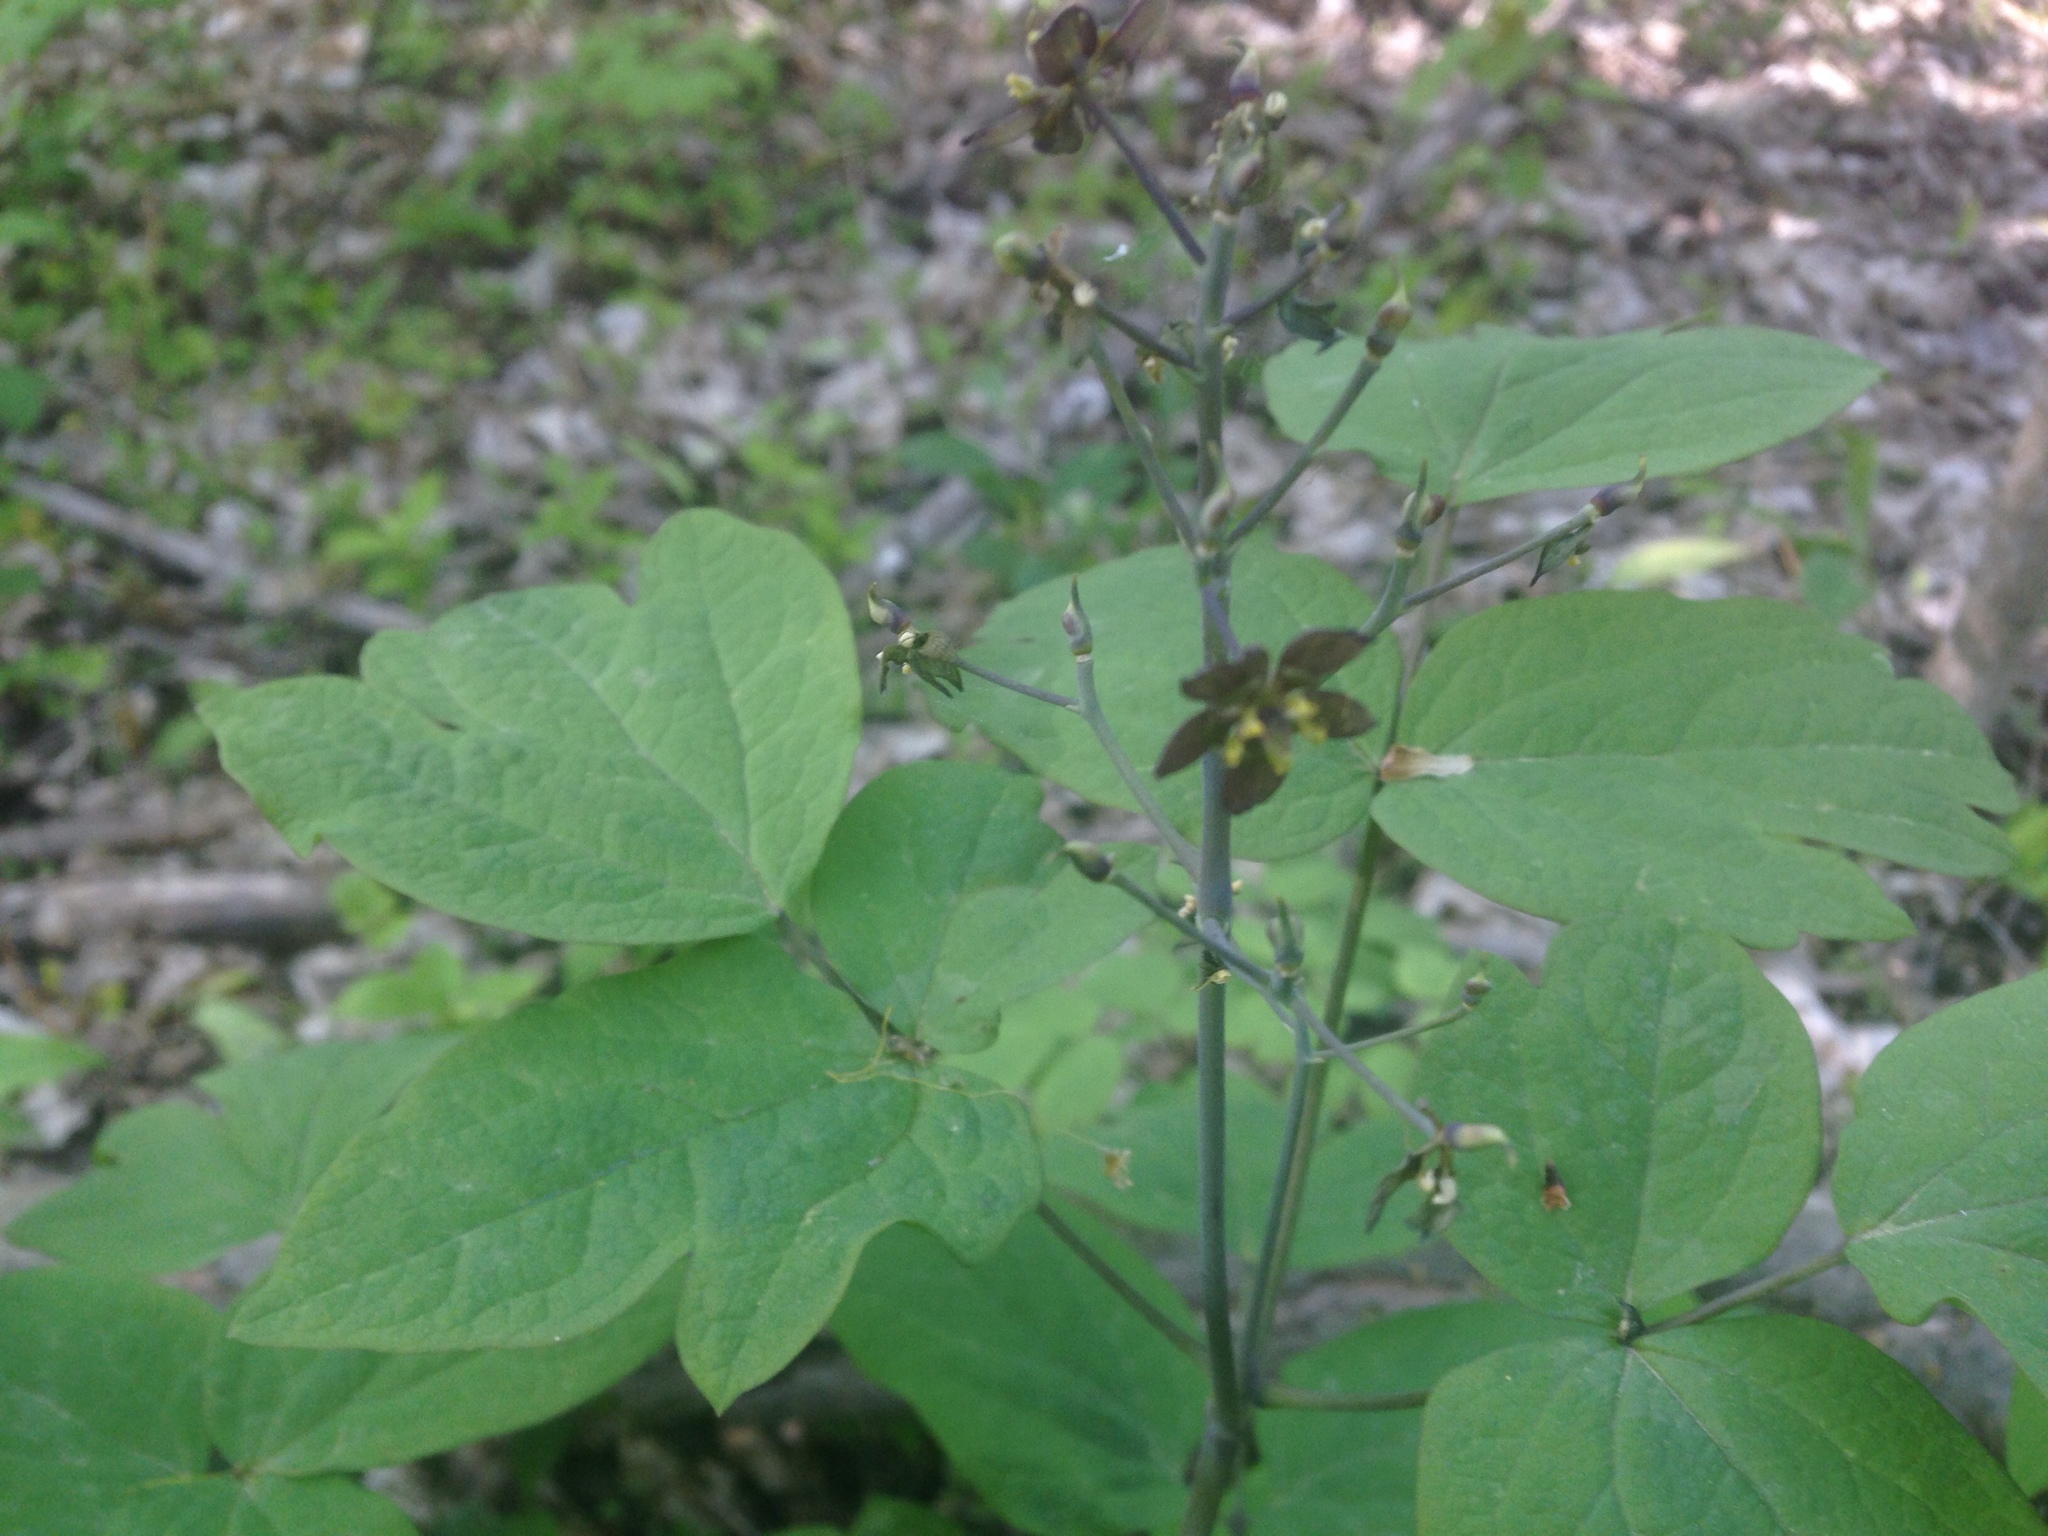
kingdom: Plantae
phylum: Tracheophyta
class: Magnoliopsida
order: Ranunculales
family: Berberidaceae
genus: Caulophyllum
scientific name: Caulophyllum giganteum
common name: Blue cohosh
